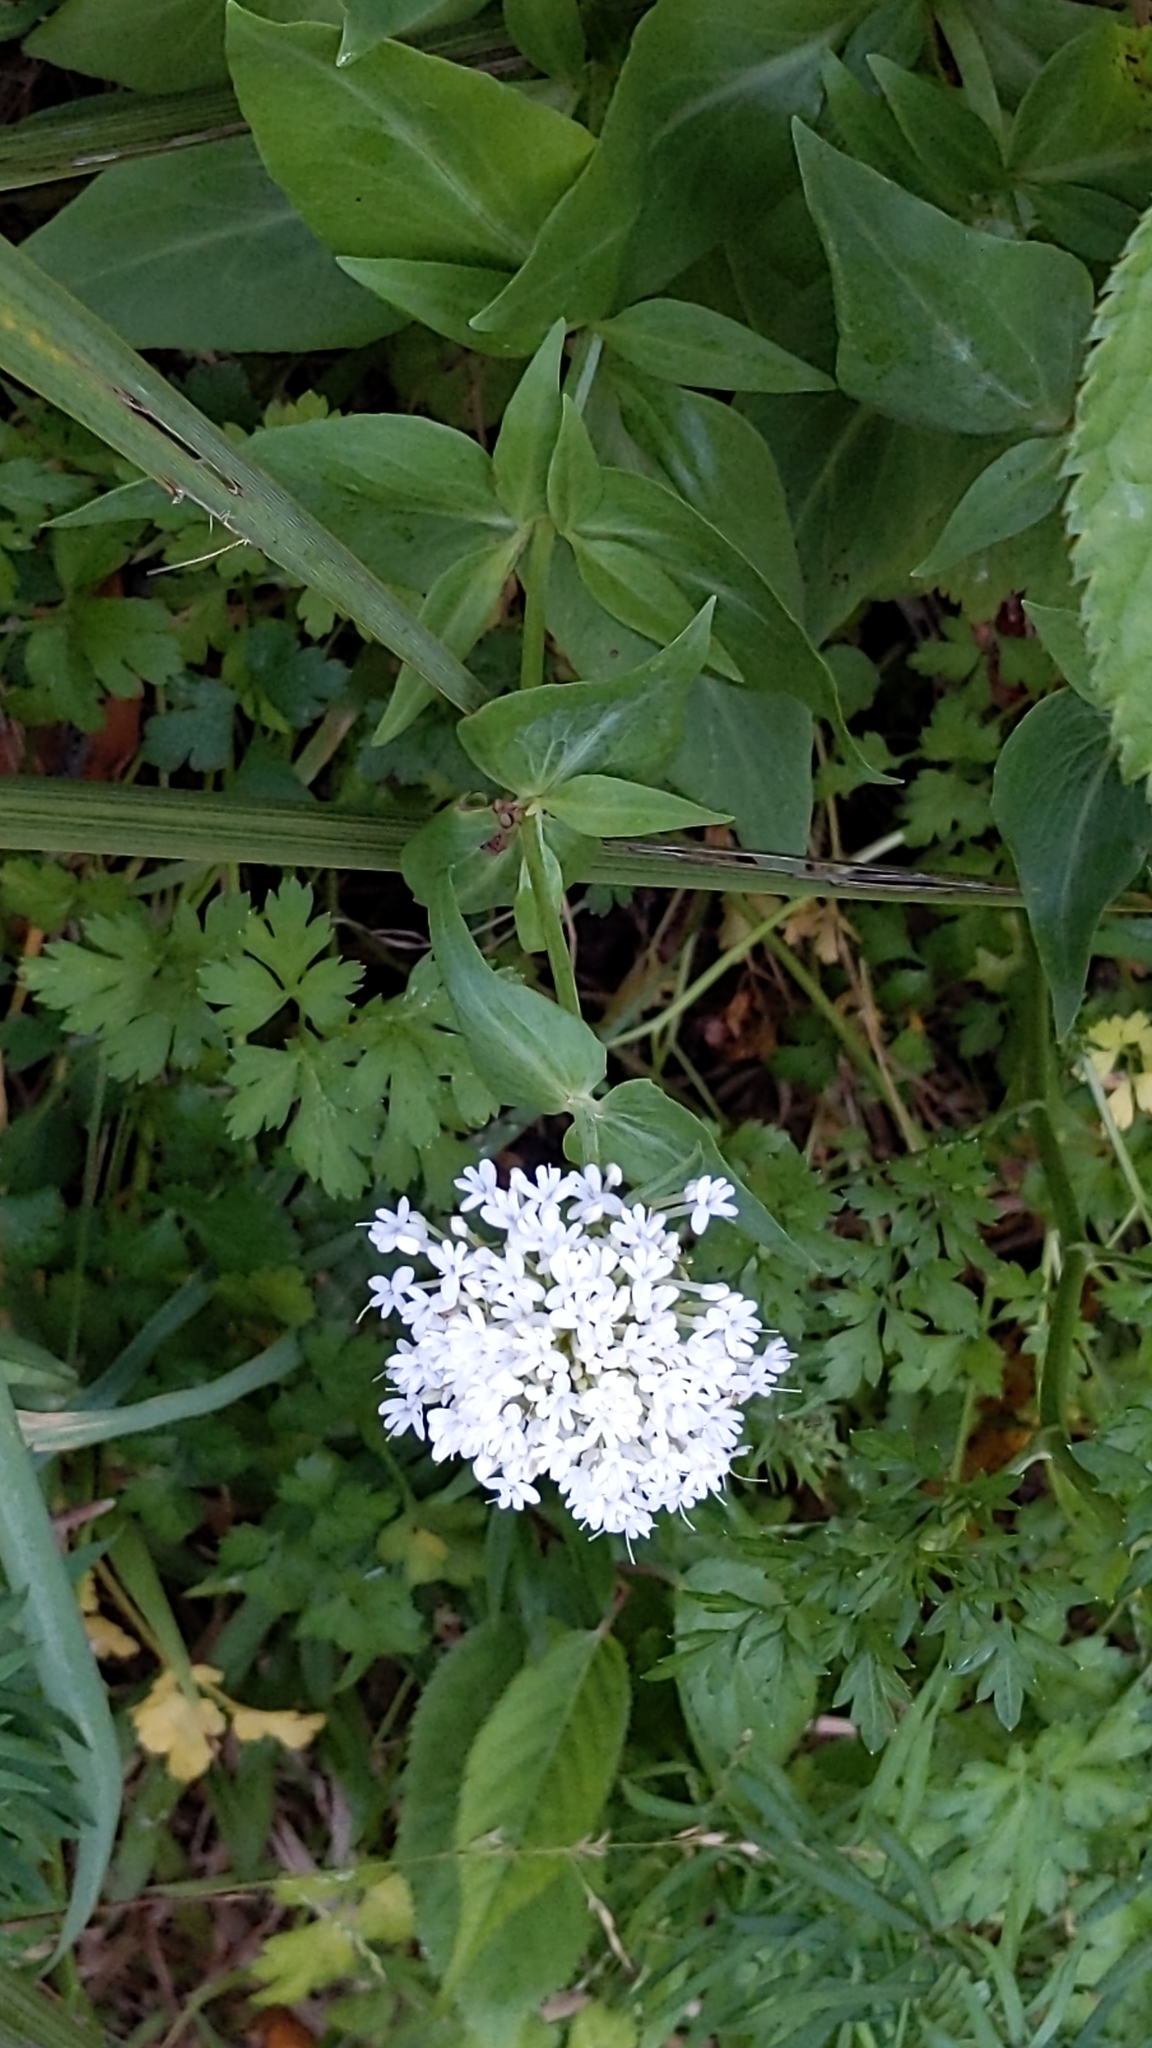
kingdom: Plantae
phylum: Tracheophyta
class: Magnoliopsida
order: Dipsacales
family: Caprifoliaceae
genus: Centranthus
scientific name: Centranthus ruber
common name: Red valerian
